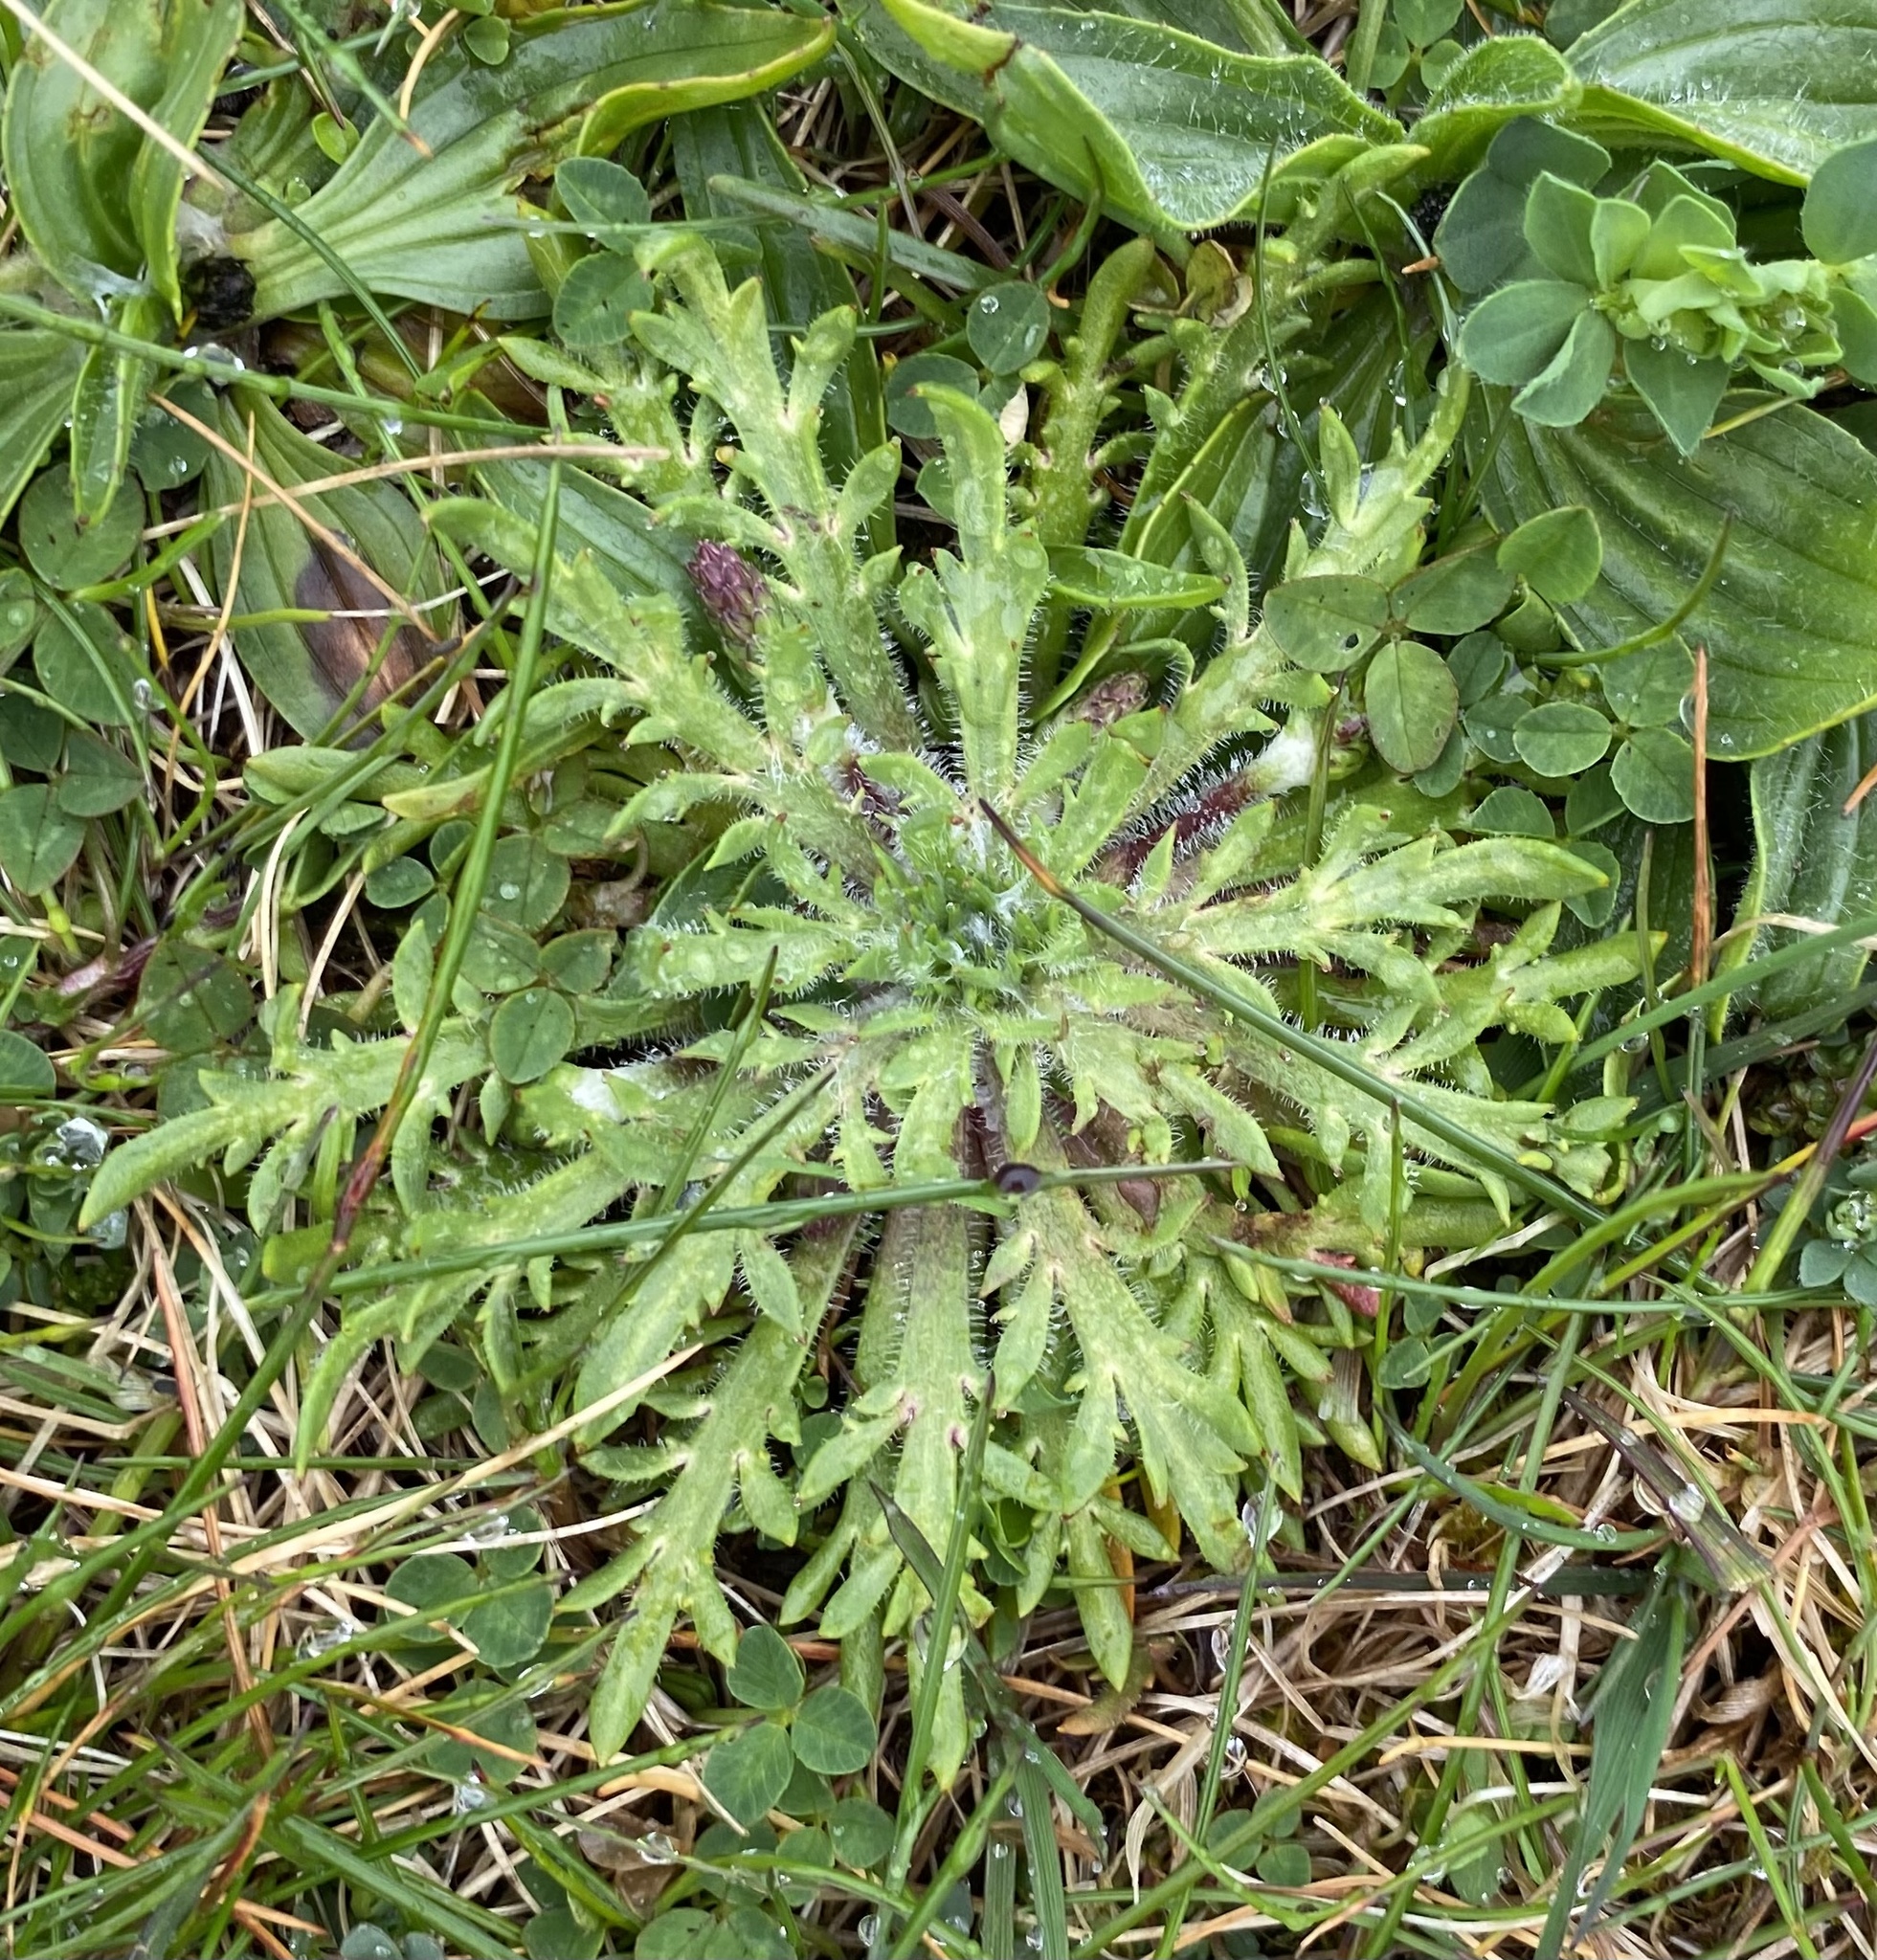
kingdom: Plantae
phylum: Tracheophyta
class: Magnoliopsida
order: Lamiales
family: Plantaginaceae
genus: Plantago
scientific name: Plantago coronopus
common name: Buck's-horn plantain
